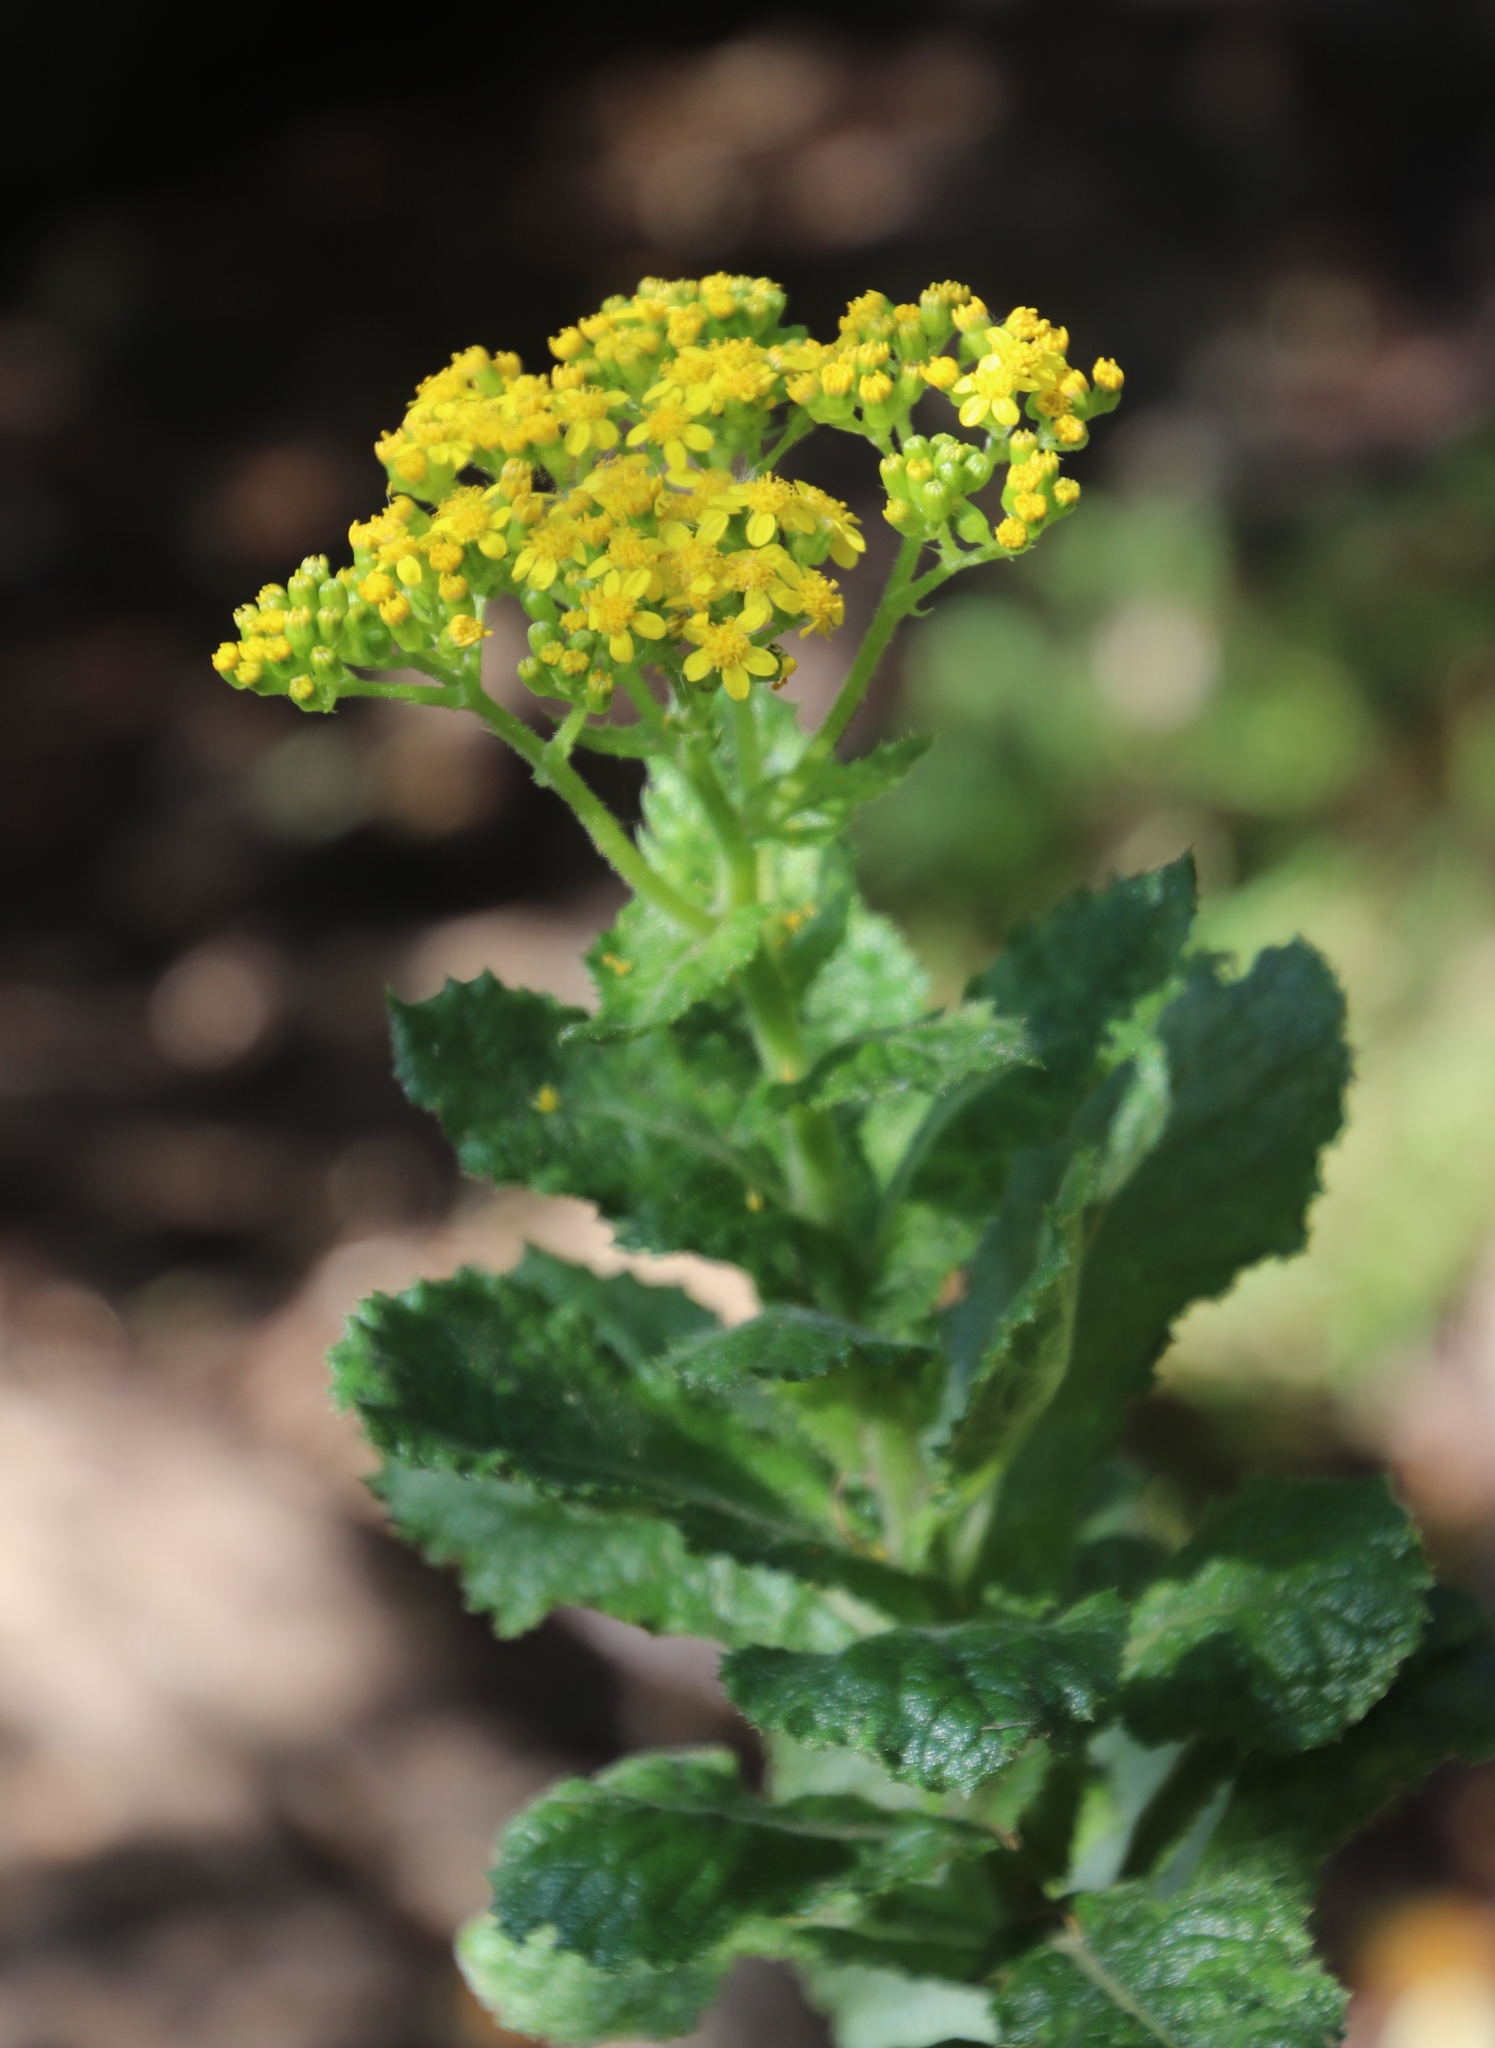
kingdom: Plantae
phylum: Tracheophyta
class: Magnoliopsida
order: Asterales
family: Asteraceae
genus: Senecio
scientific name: Senecio rigidus
